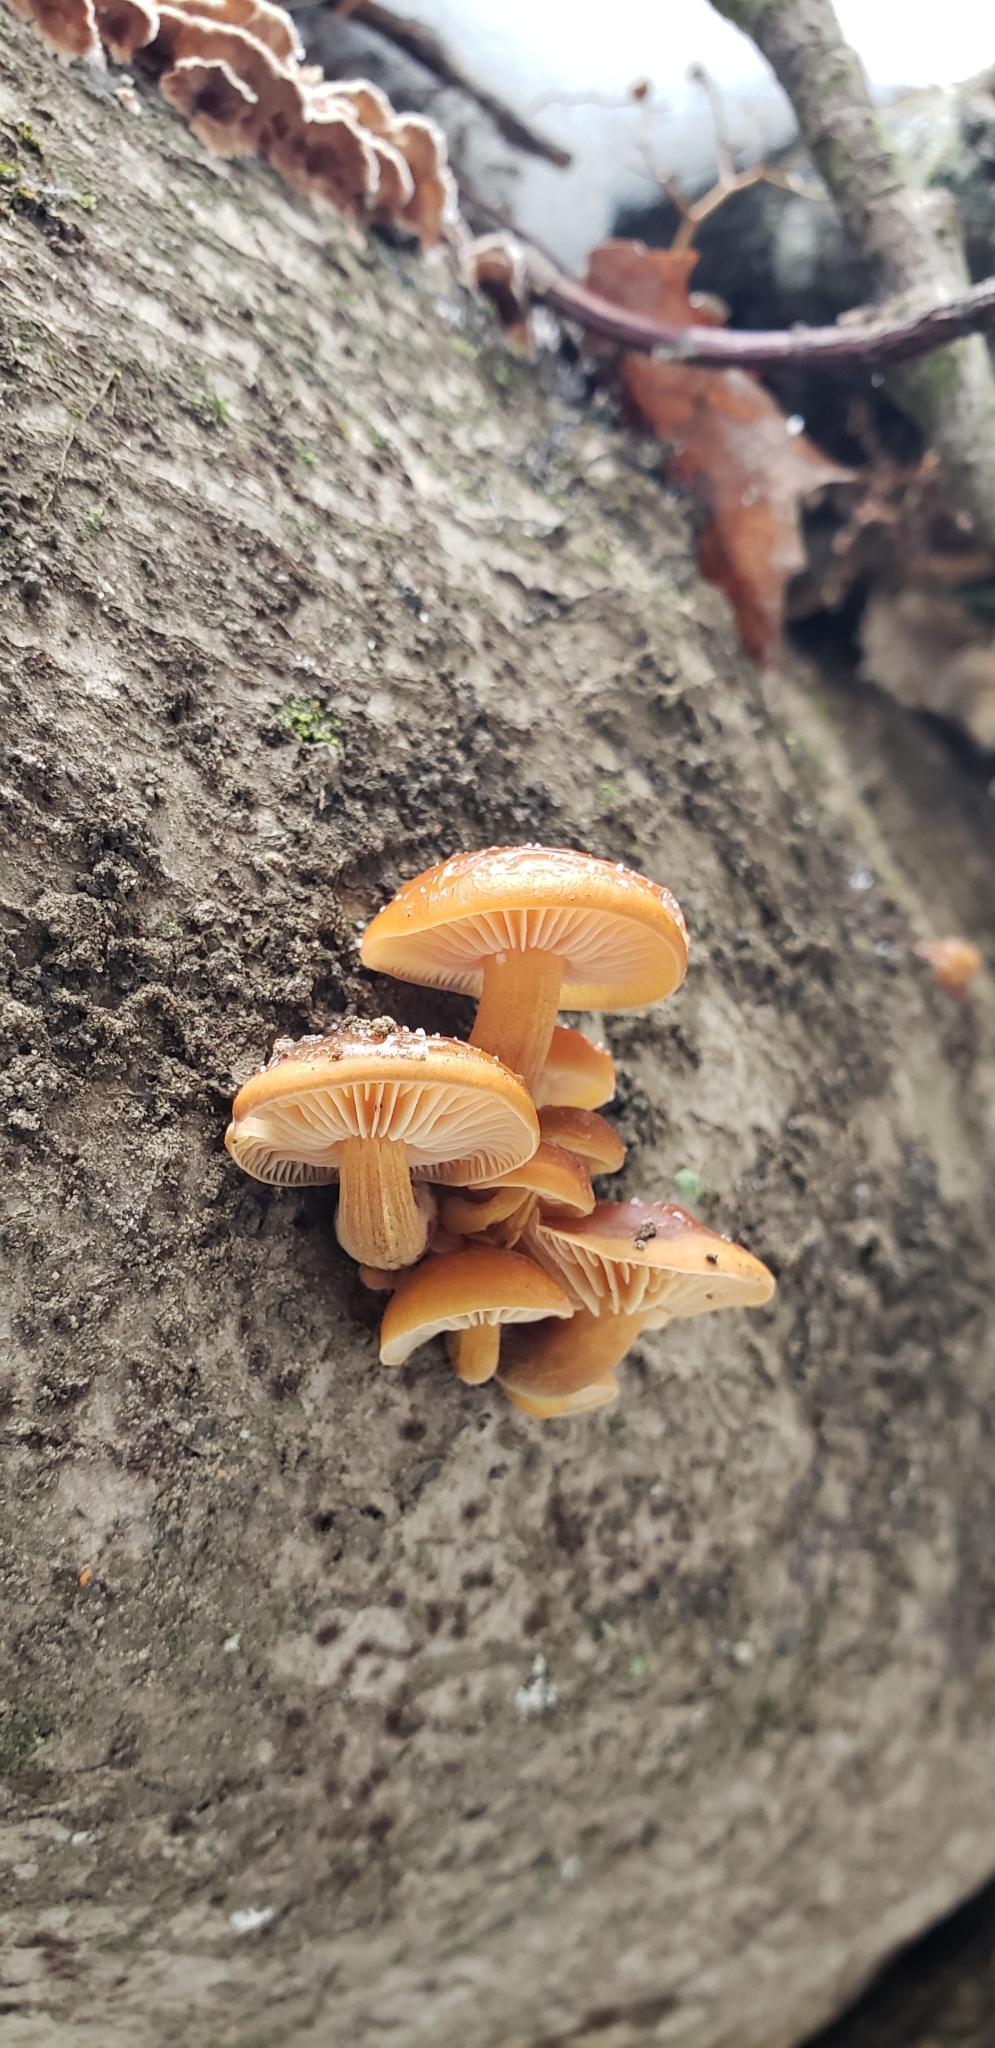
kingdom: Fungi
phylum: Basidiomycota
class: Agaricomycetes
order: Agaricales
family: Physalacriaceae
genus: Flammulina
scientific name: Flammulina velutipes
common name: Velvet shank
